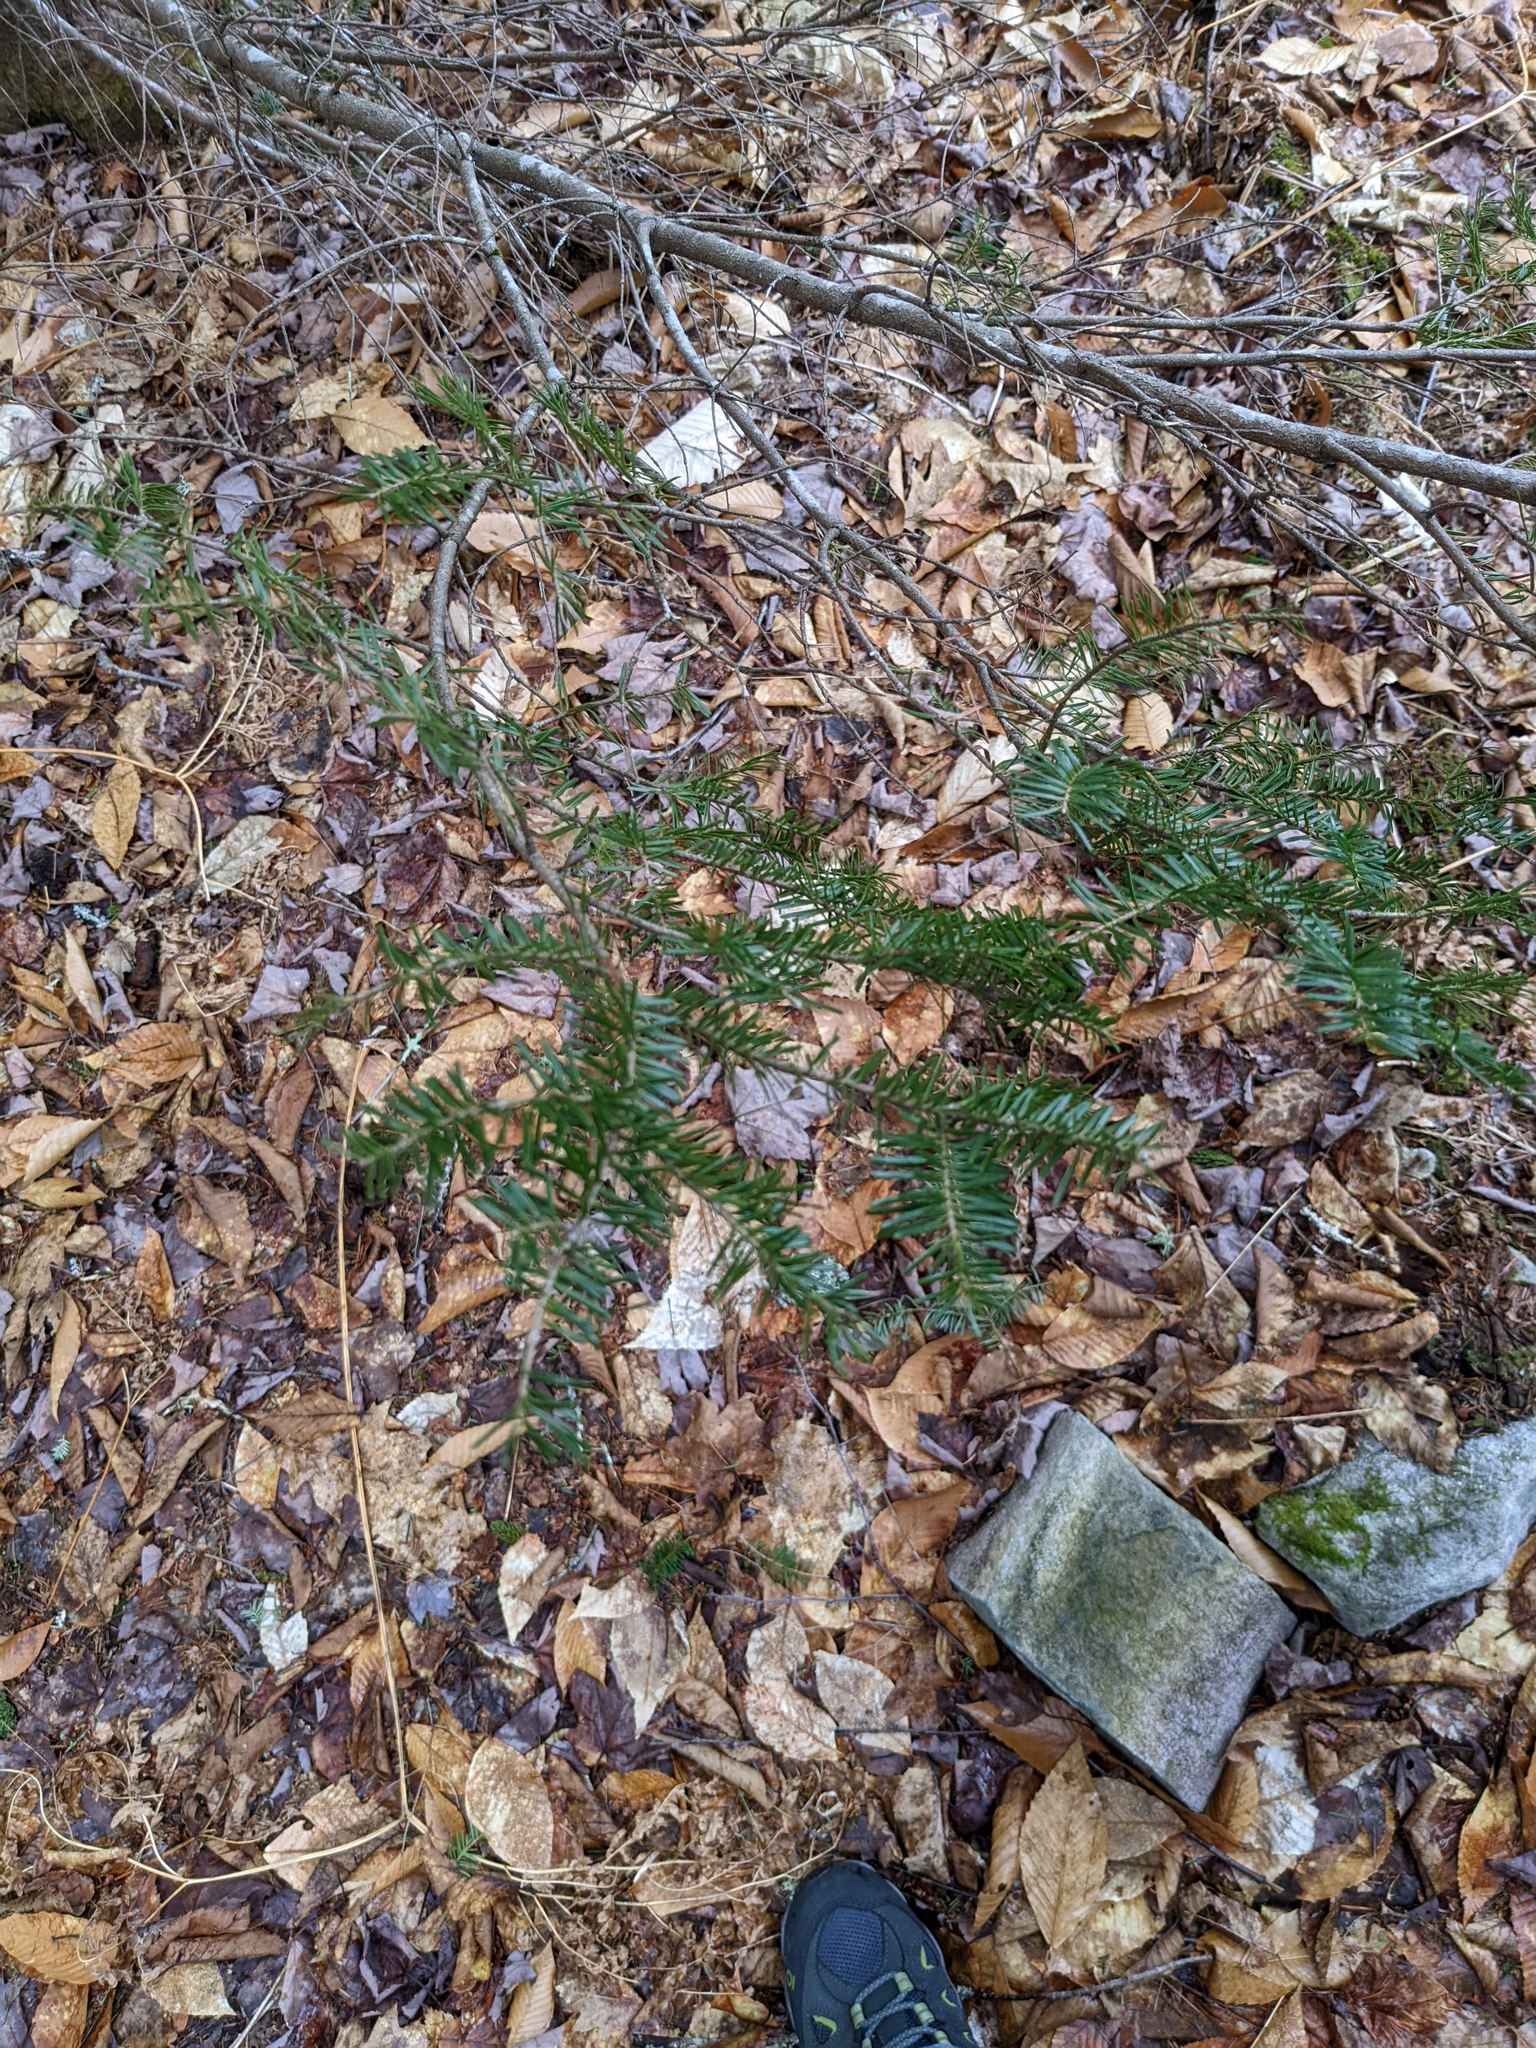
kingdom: Plantae
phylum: Tracheophyta
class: Pinopsida
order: Pinales
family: Pinaceae
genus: Abies
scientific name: Abies balsamea
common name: Balsam fir
